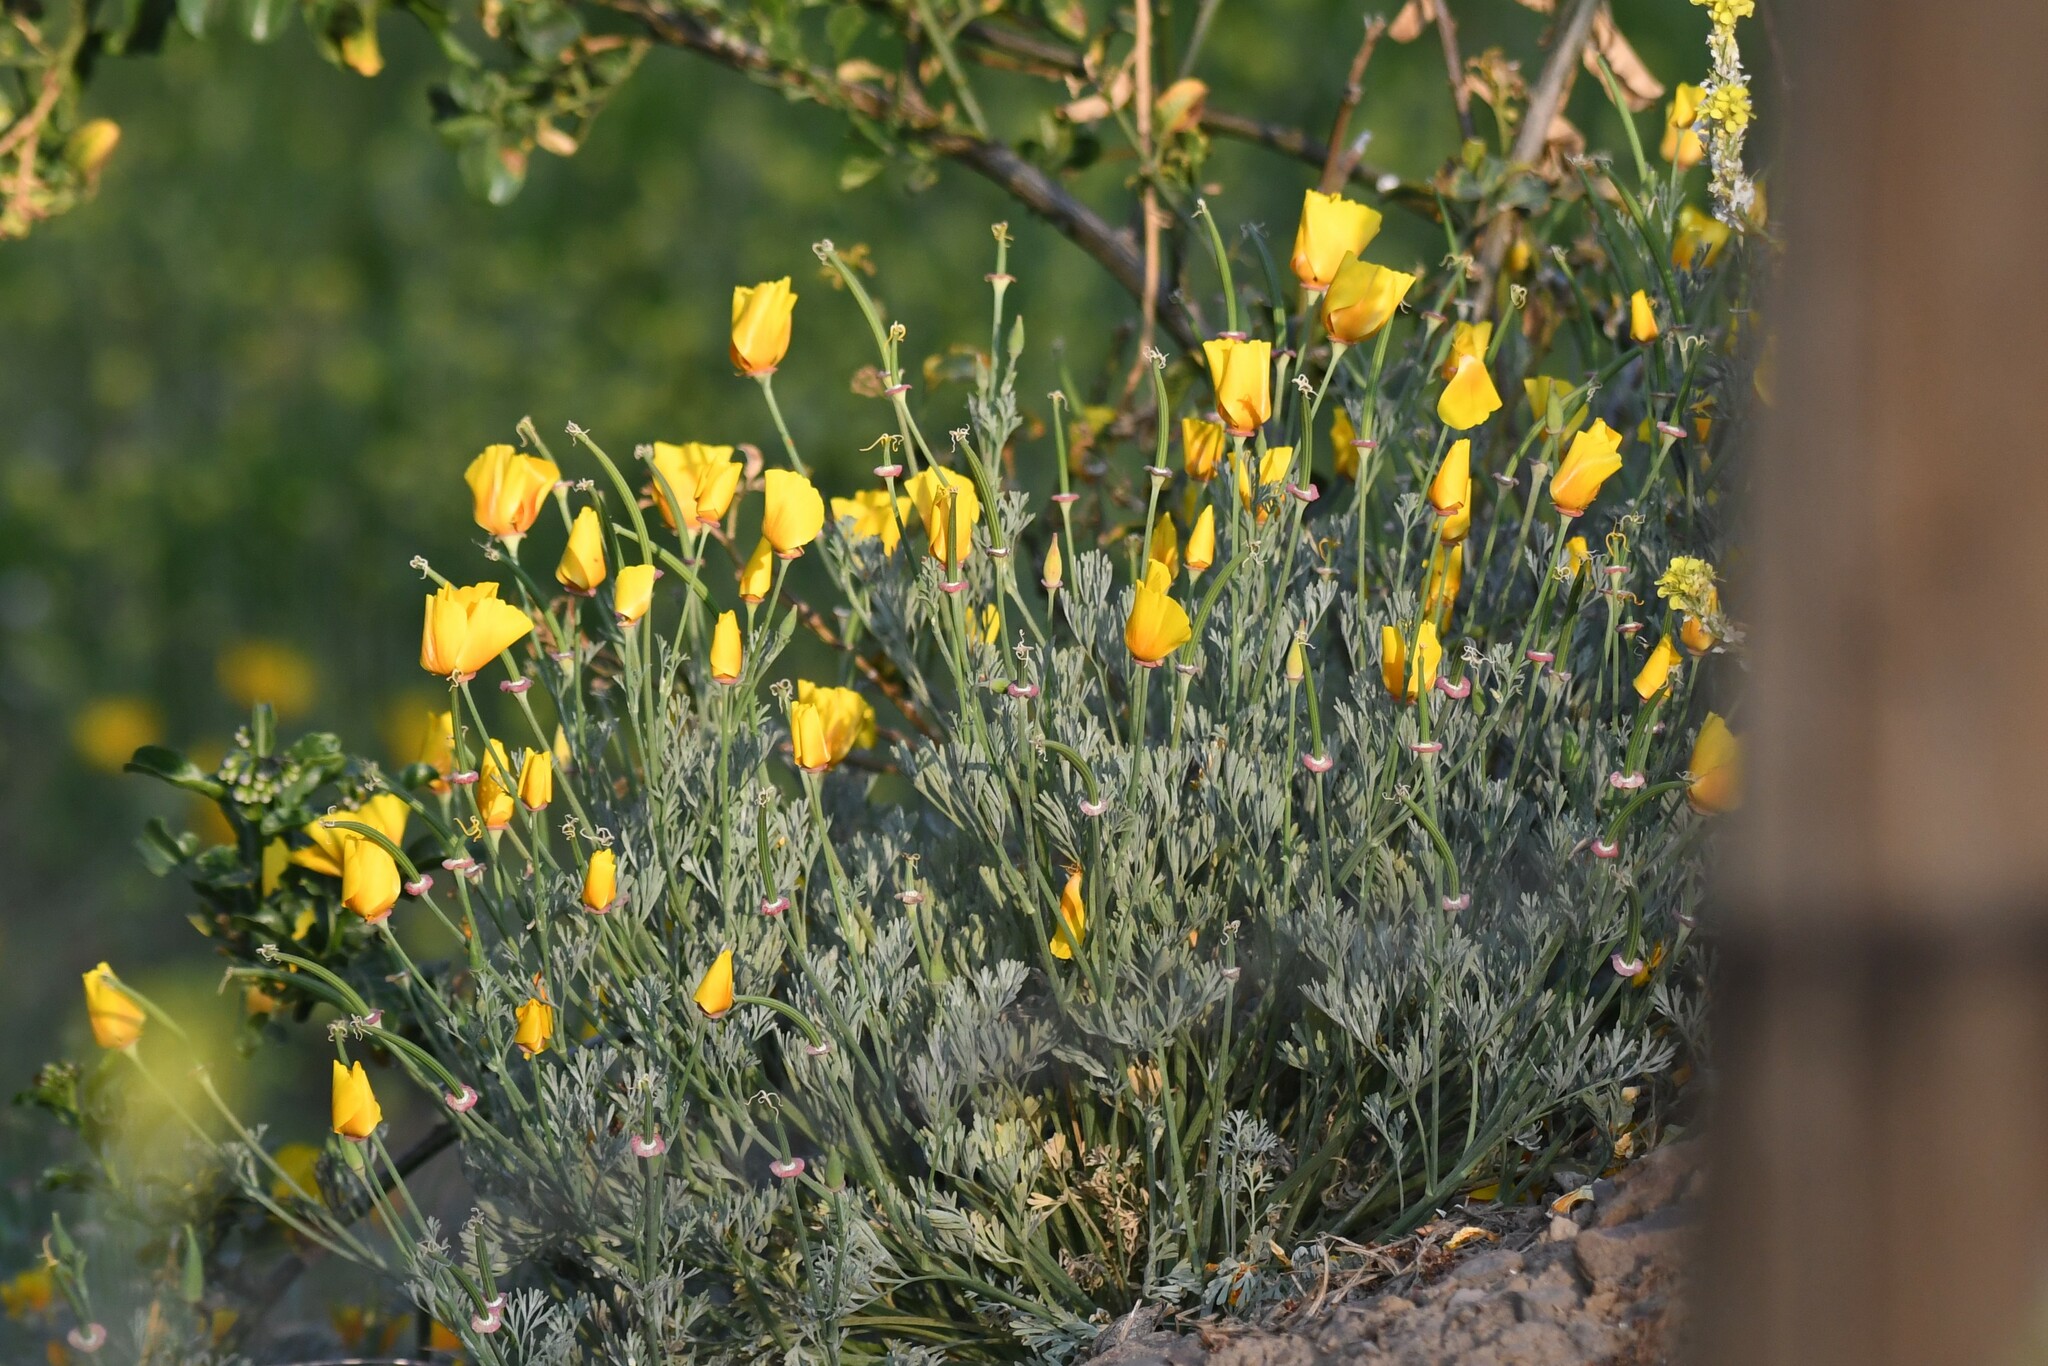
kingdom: Plantae
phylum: Tracheophyta
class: Magnoliopsida
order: Ranunculales
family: Papaveraceae
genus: Eschscholzia
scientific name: Eschscholzia californica
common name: California poppy
